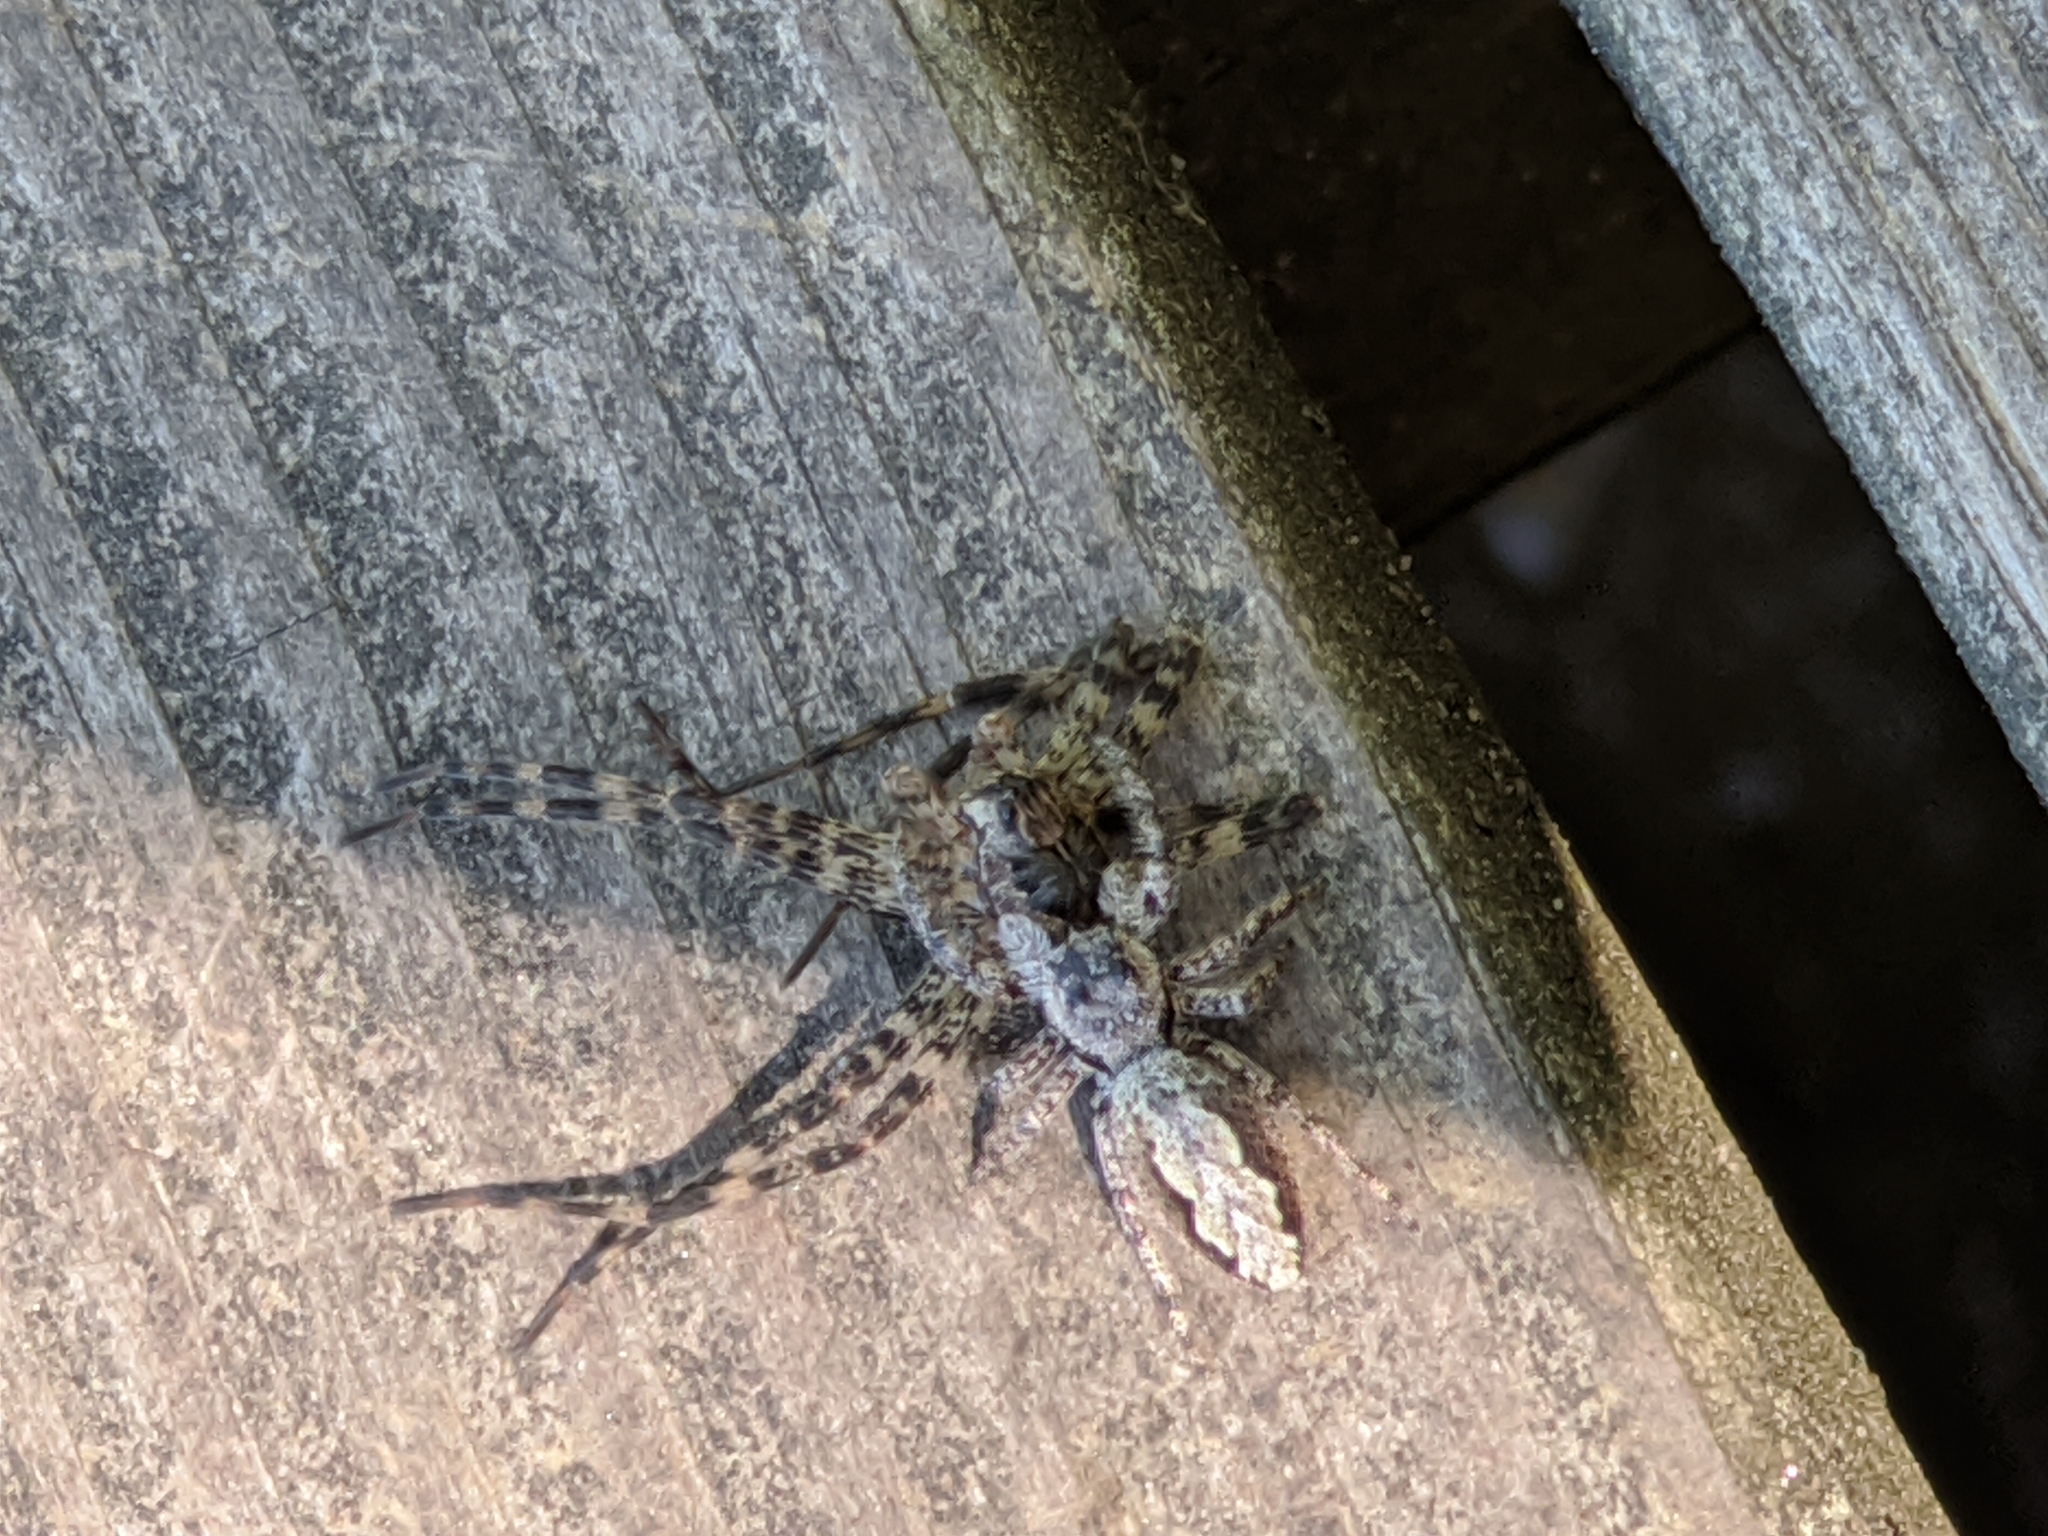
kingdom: Animalia
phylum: Arthropoda
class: Arachnida
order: Araneae
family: Salticidae
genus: Platycryptus
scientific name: Platycryptus undatus
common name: Tan jumping spider
